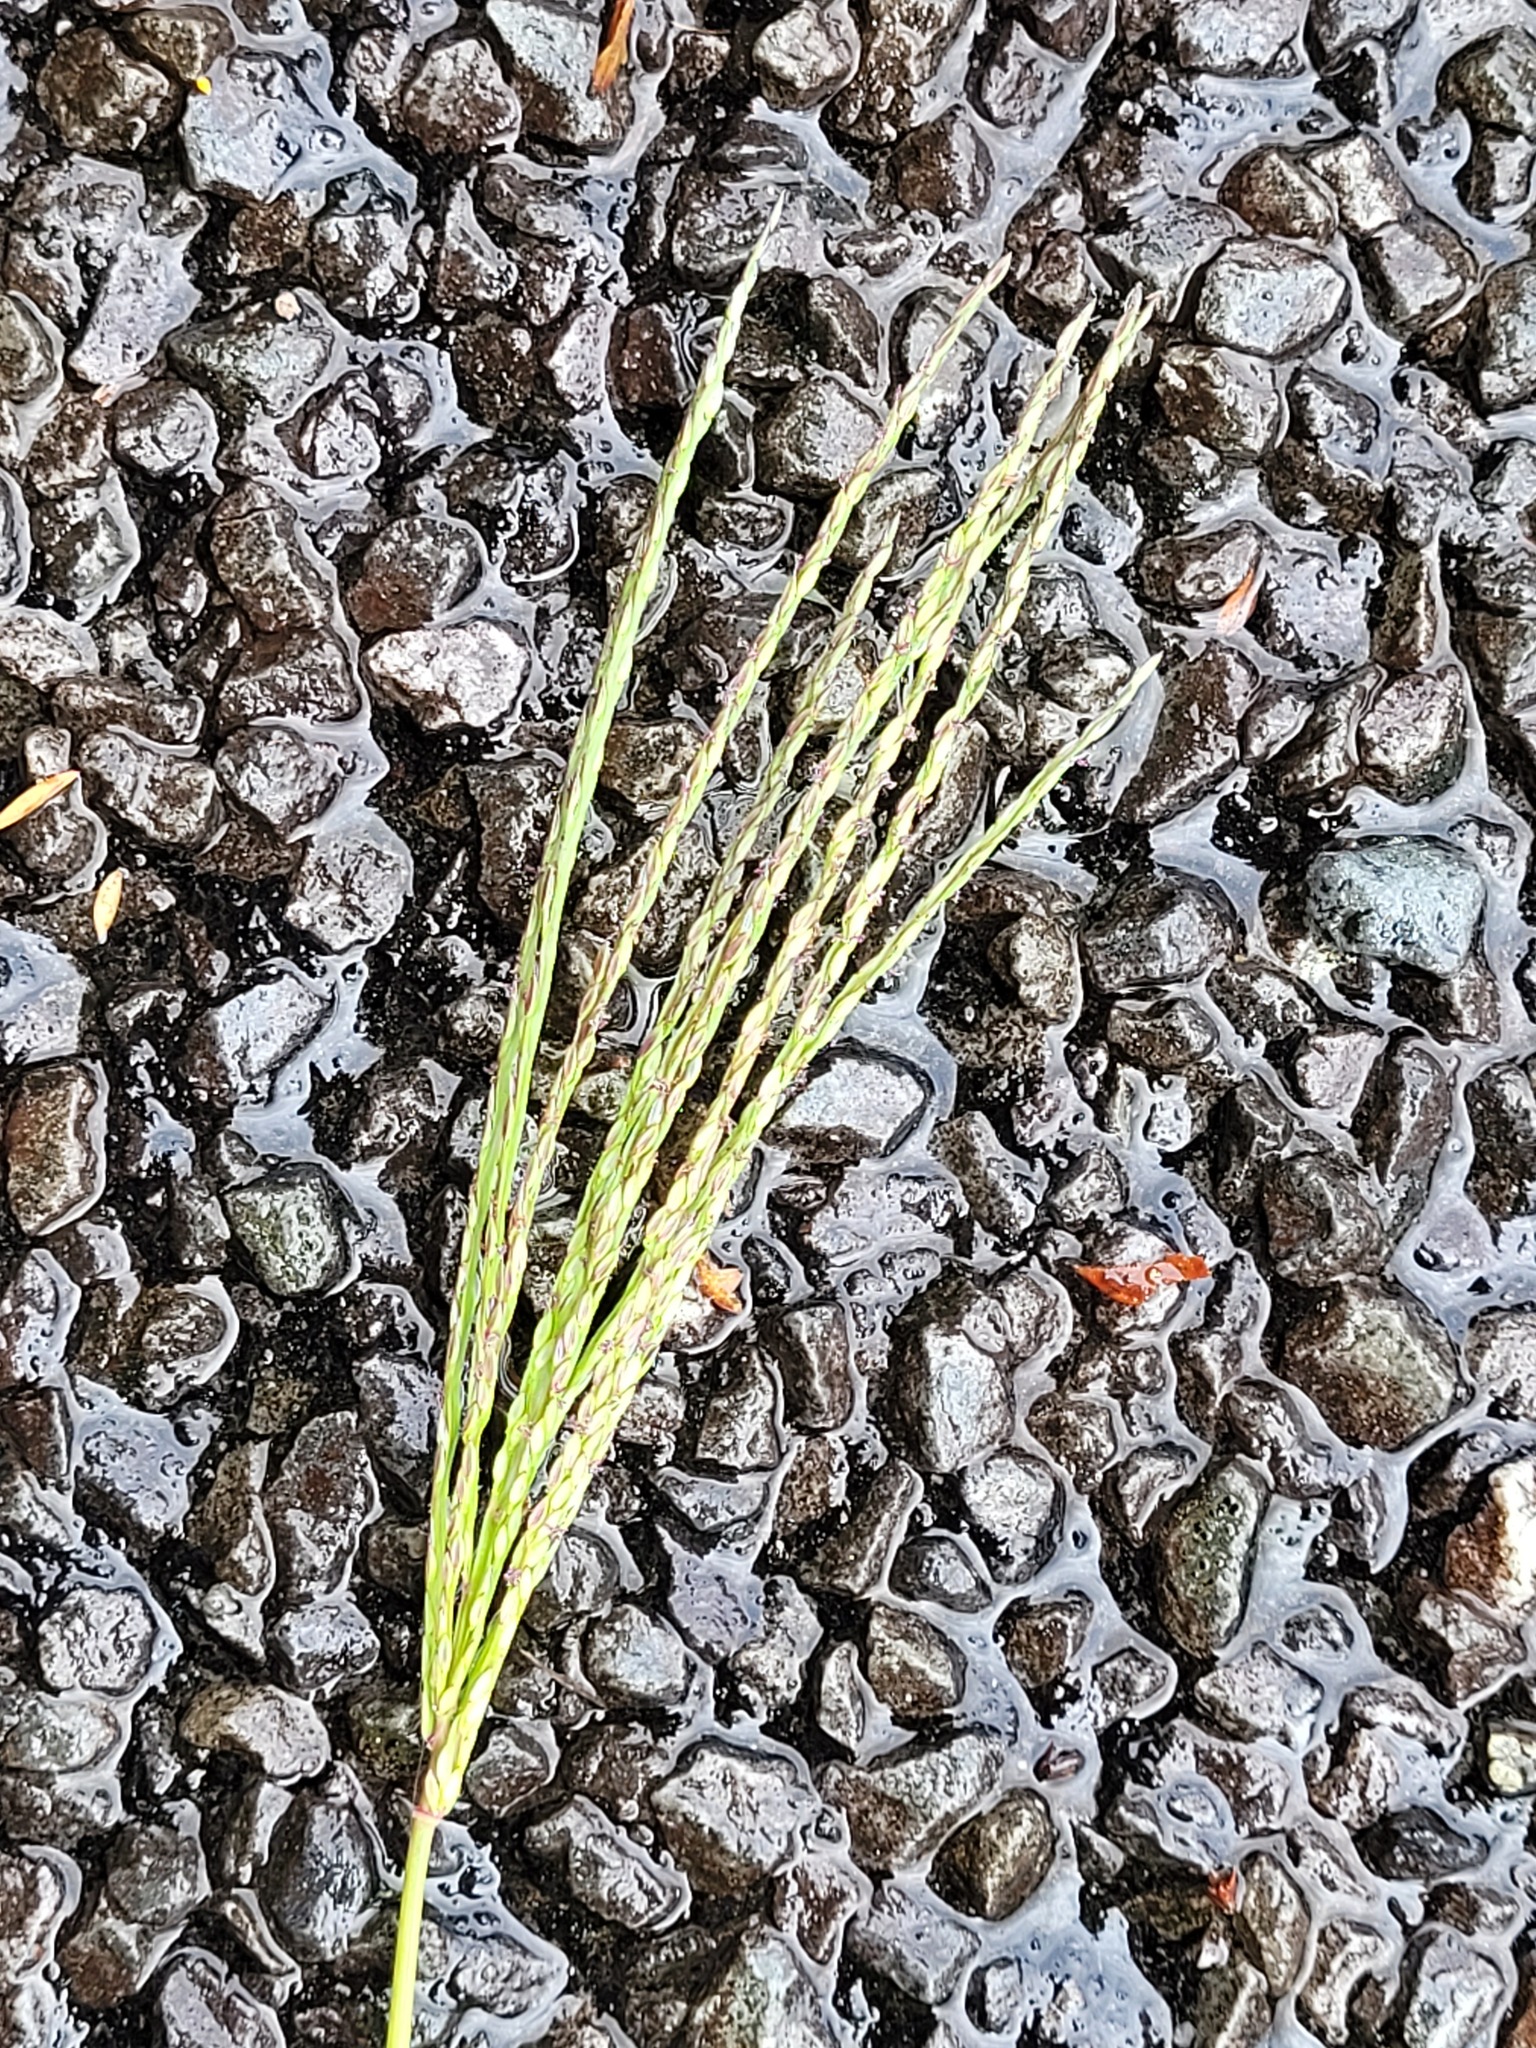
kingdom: Plantae
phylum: Tracheophyta
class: Liliopsida
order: Poales
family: Poaceae
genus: Digitaria
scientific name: Digitaria sanguinalis
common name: Hairy crabgrass
